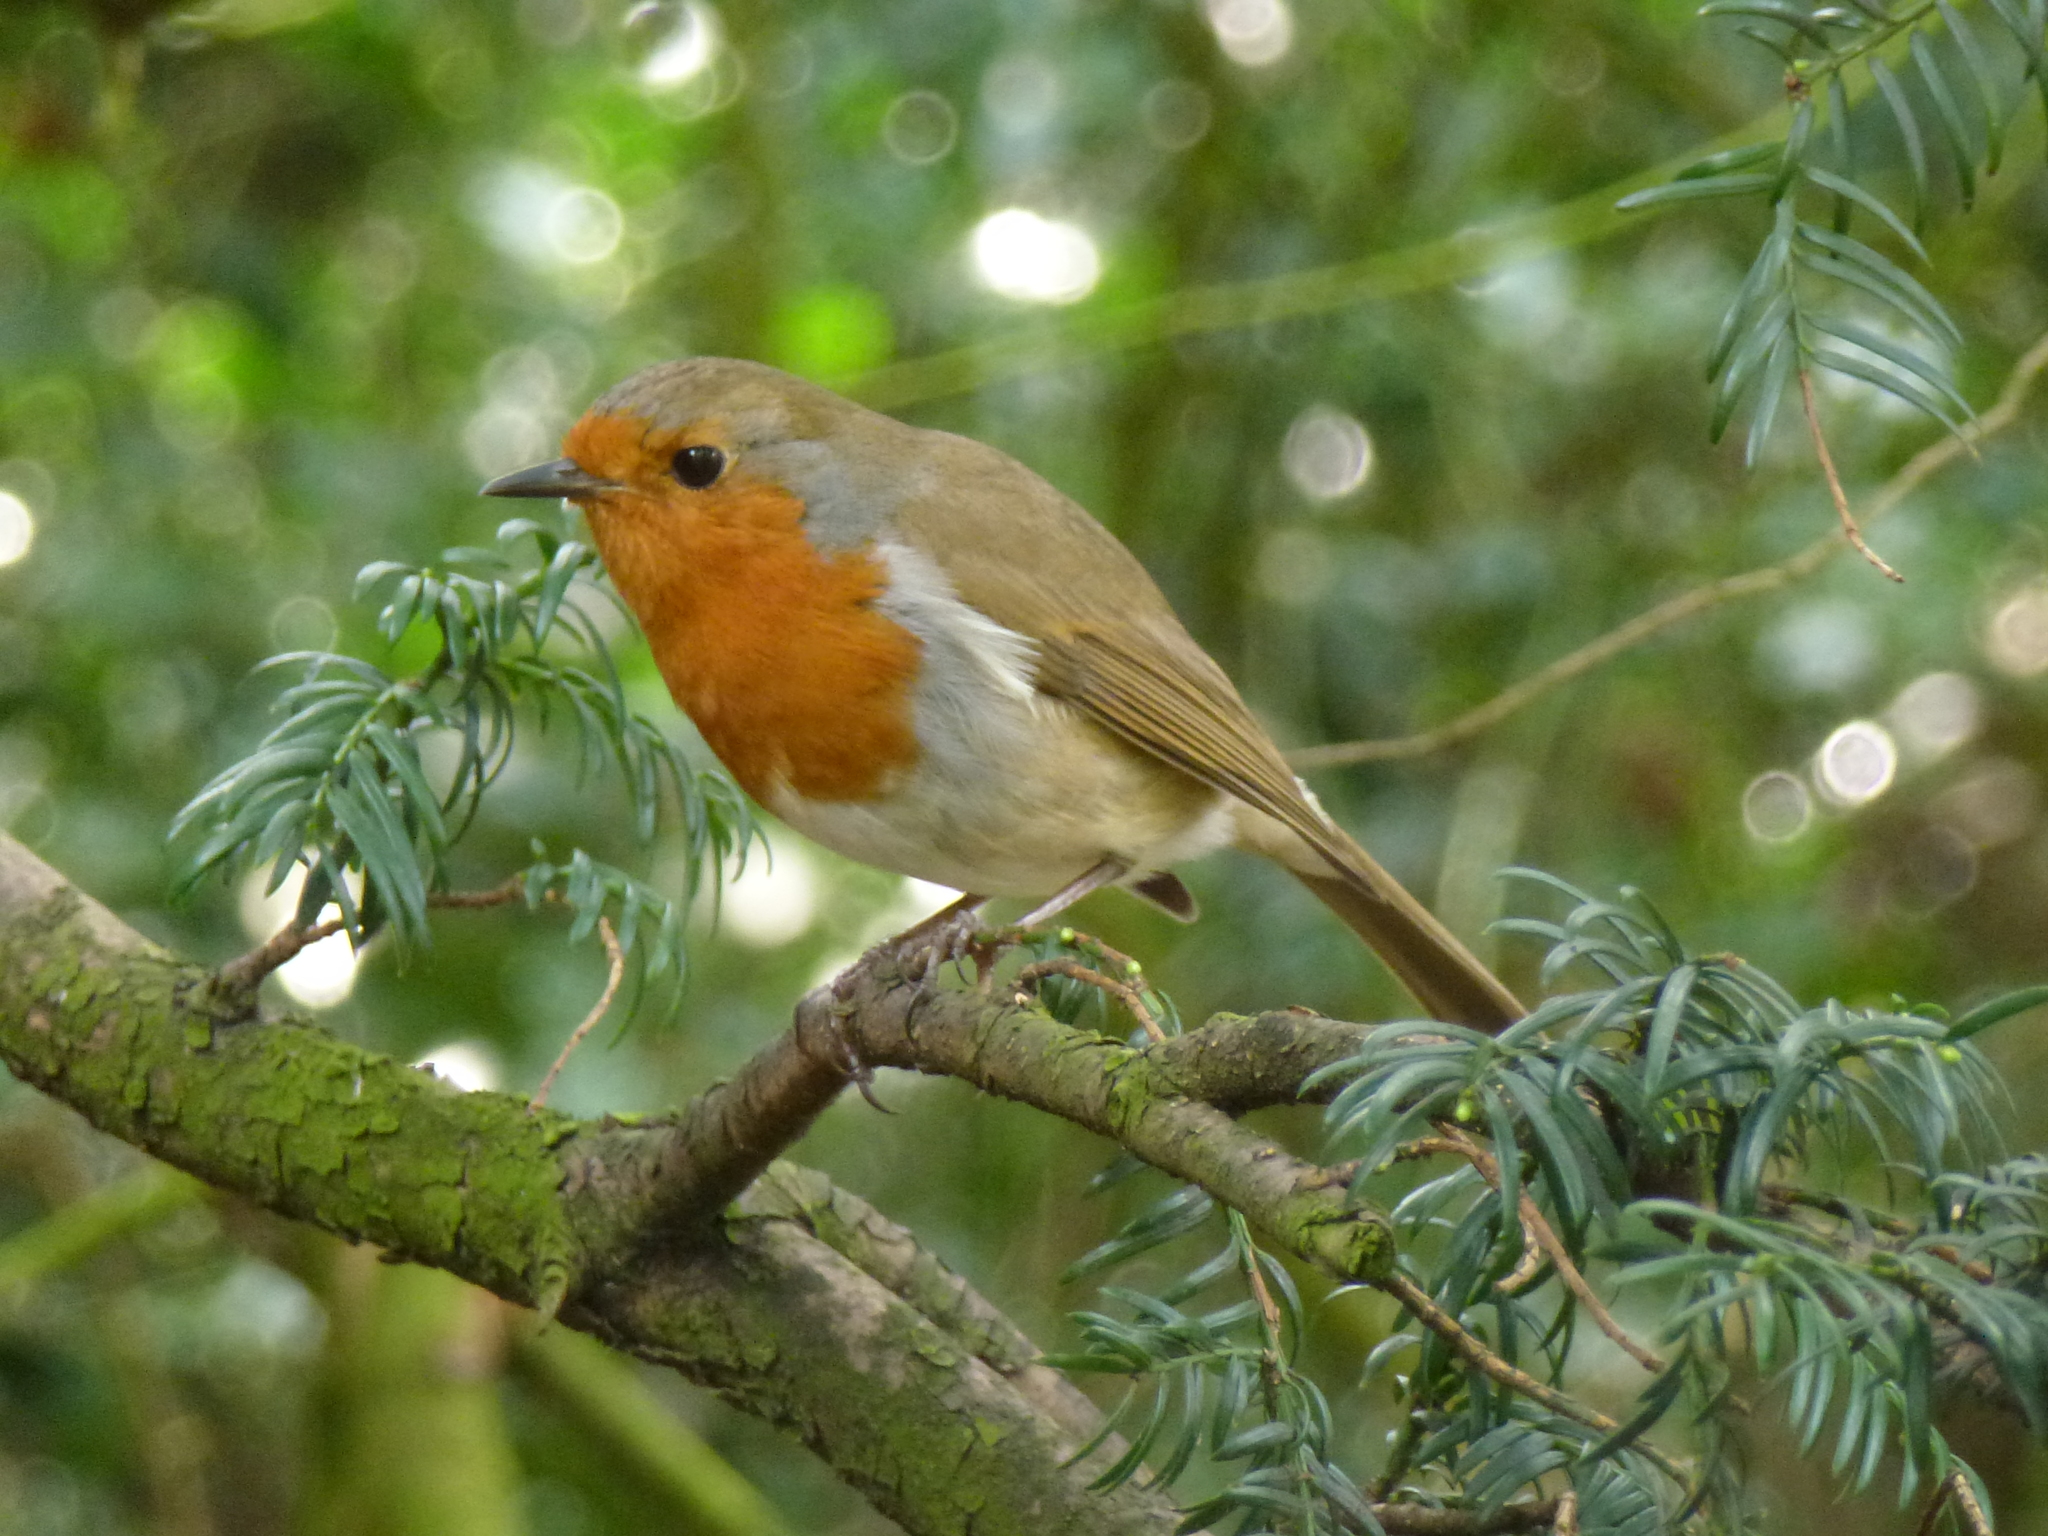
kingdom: Animalia
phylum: Chordata
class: Aves
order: Passeriformes
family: Muscicapidae
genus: Erithacus
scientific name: Erithacus rubecula
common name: European robin
